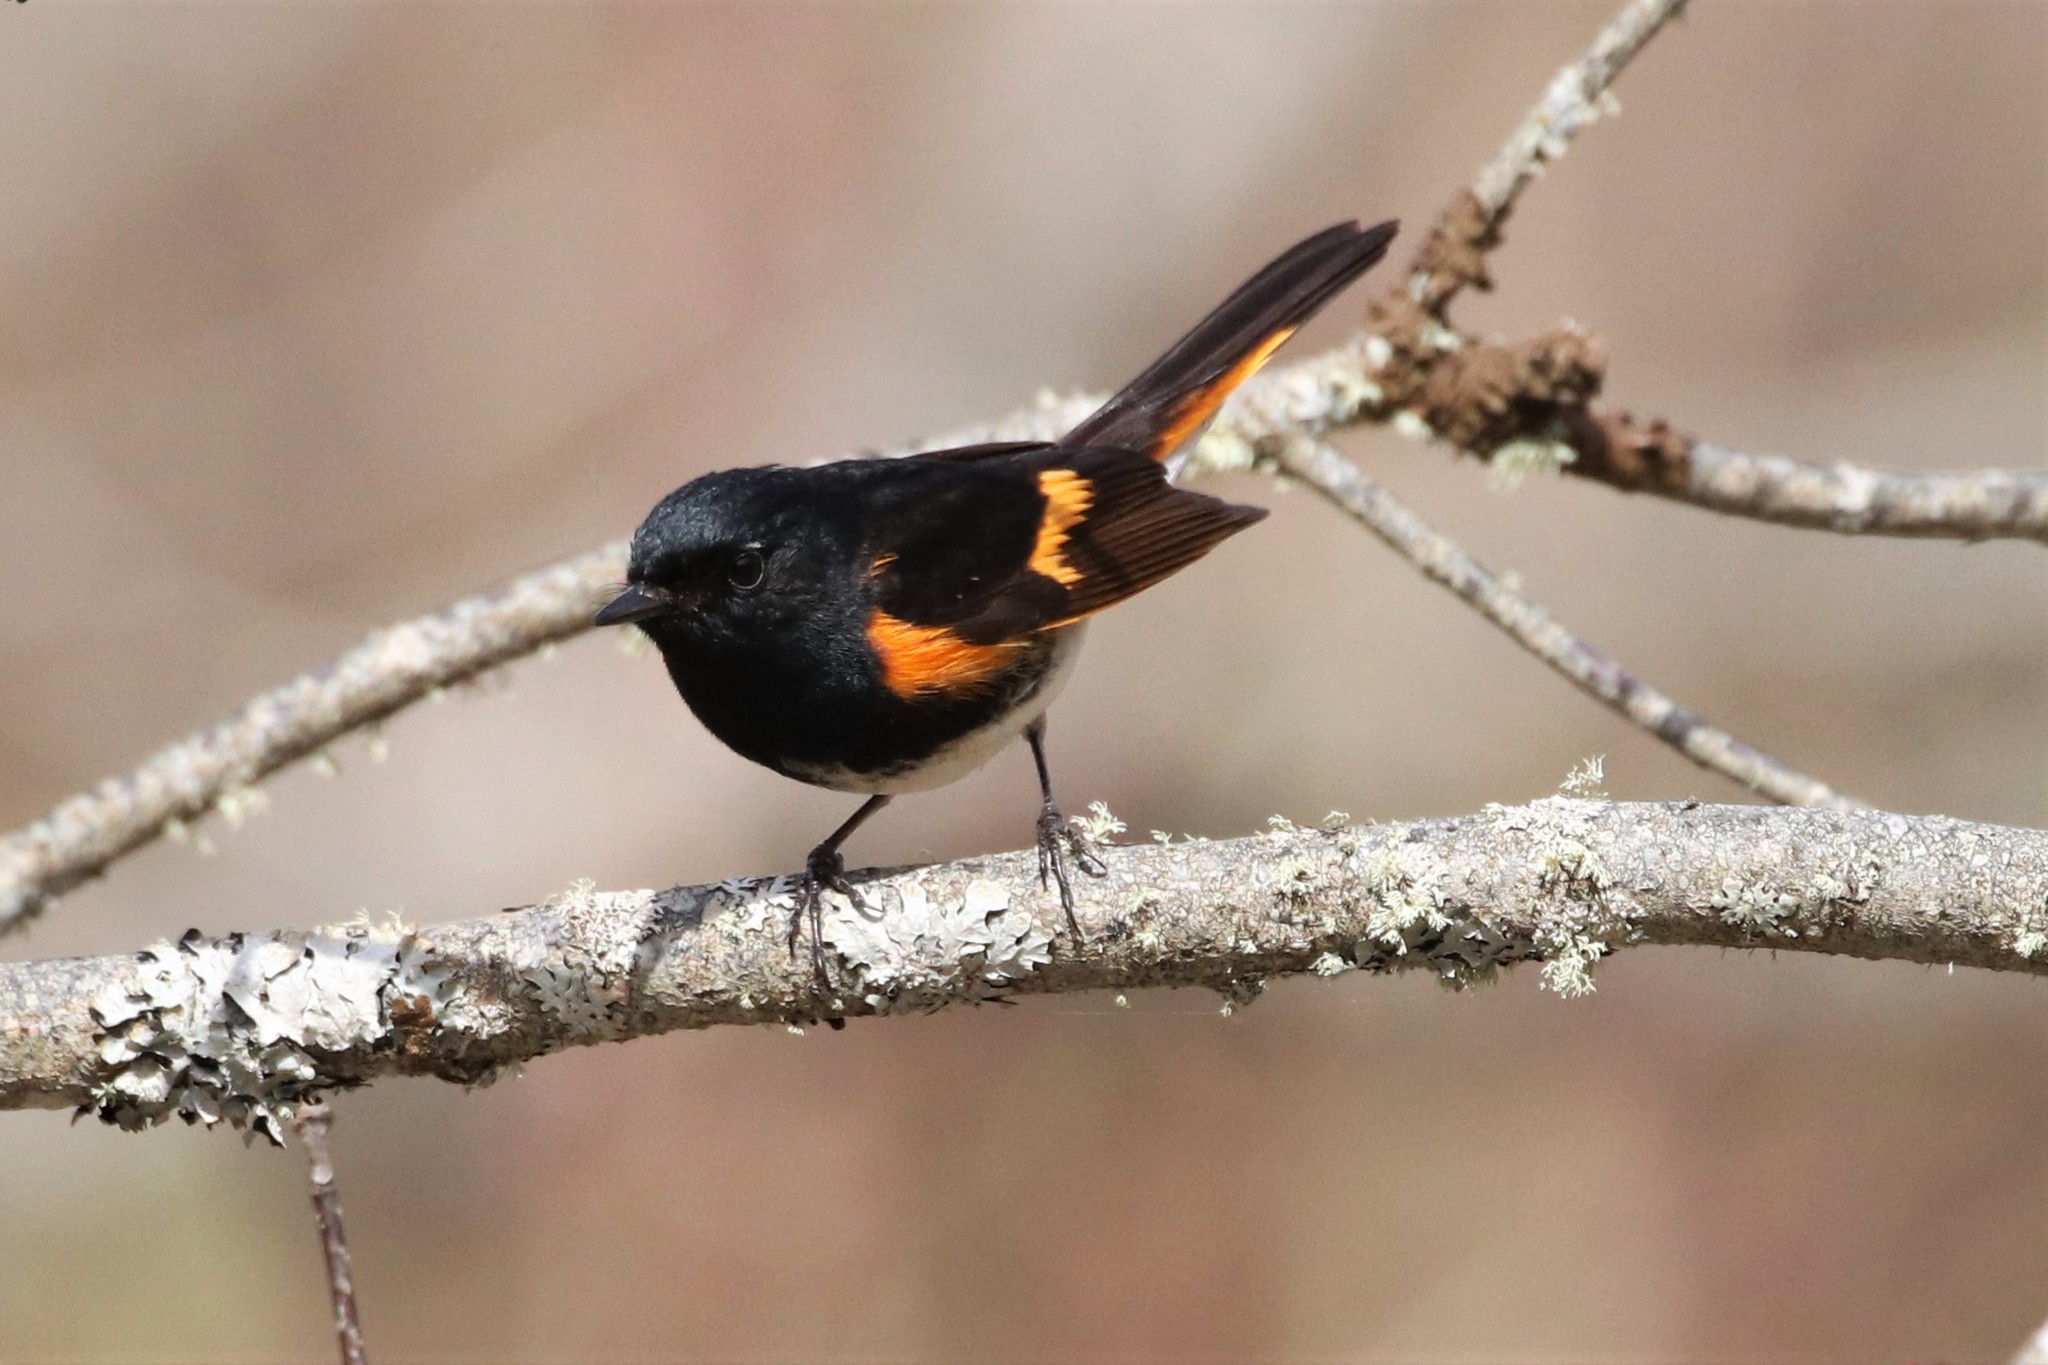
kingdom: Animalia
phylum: Chordata
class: Aves
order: Passeriformes
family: Parulidae
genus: Setophaga
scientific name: Setophaga ruticilla
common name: American redstart
